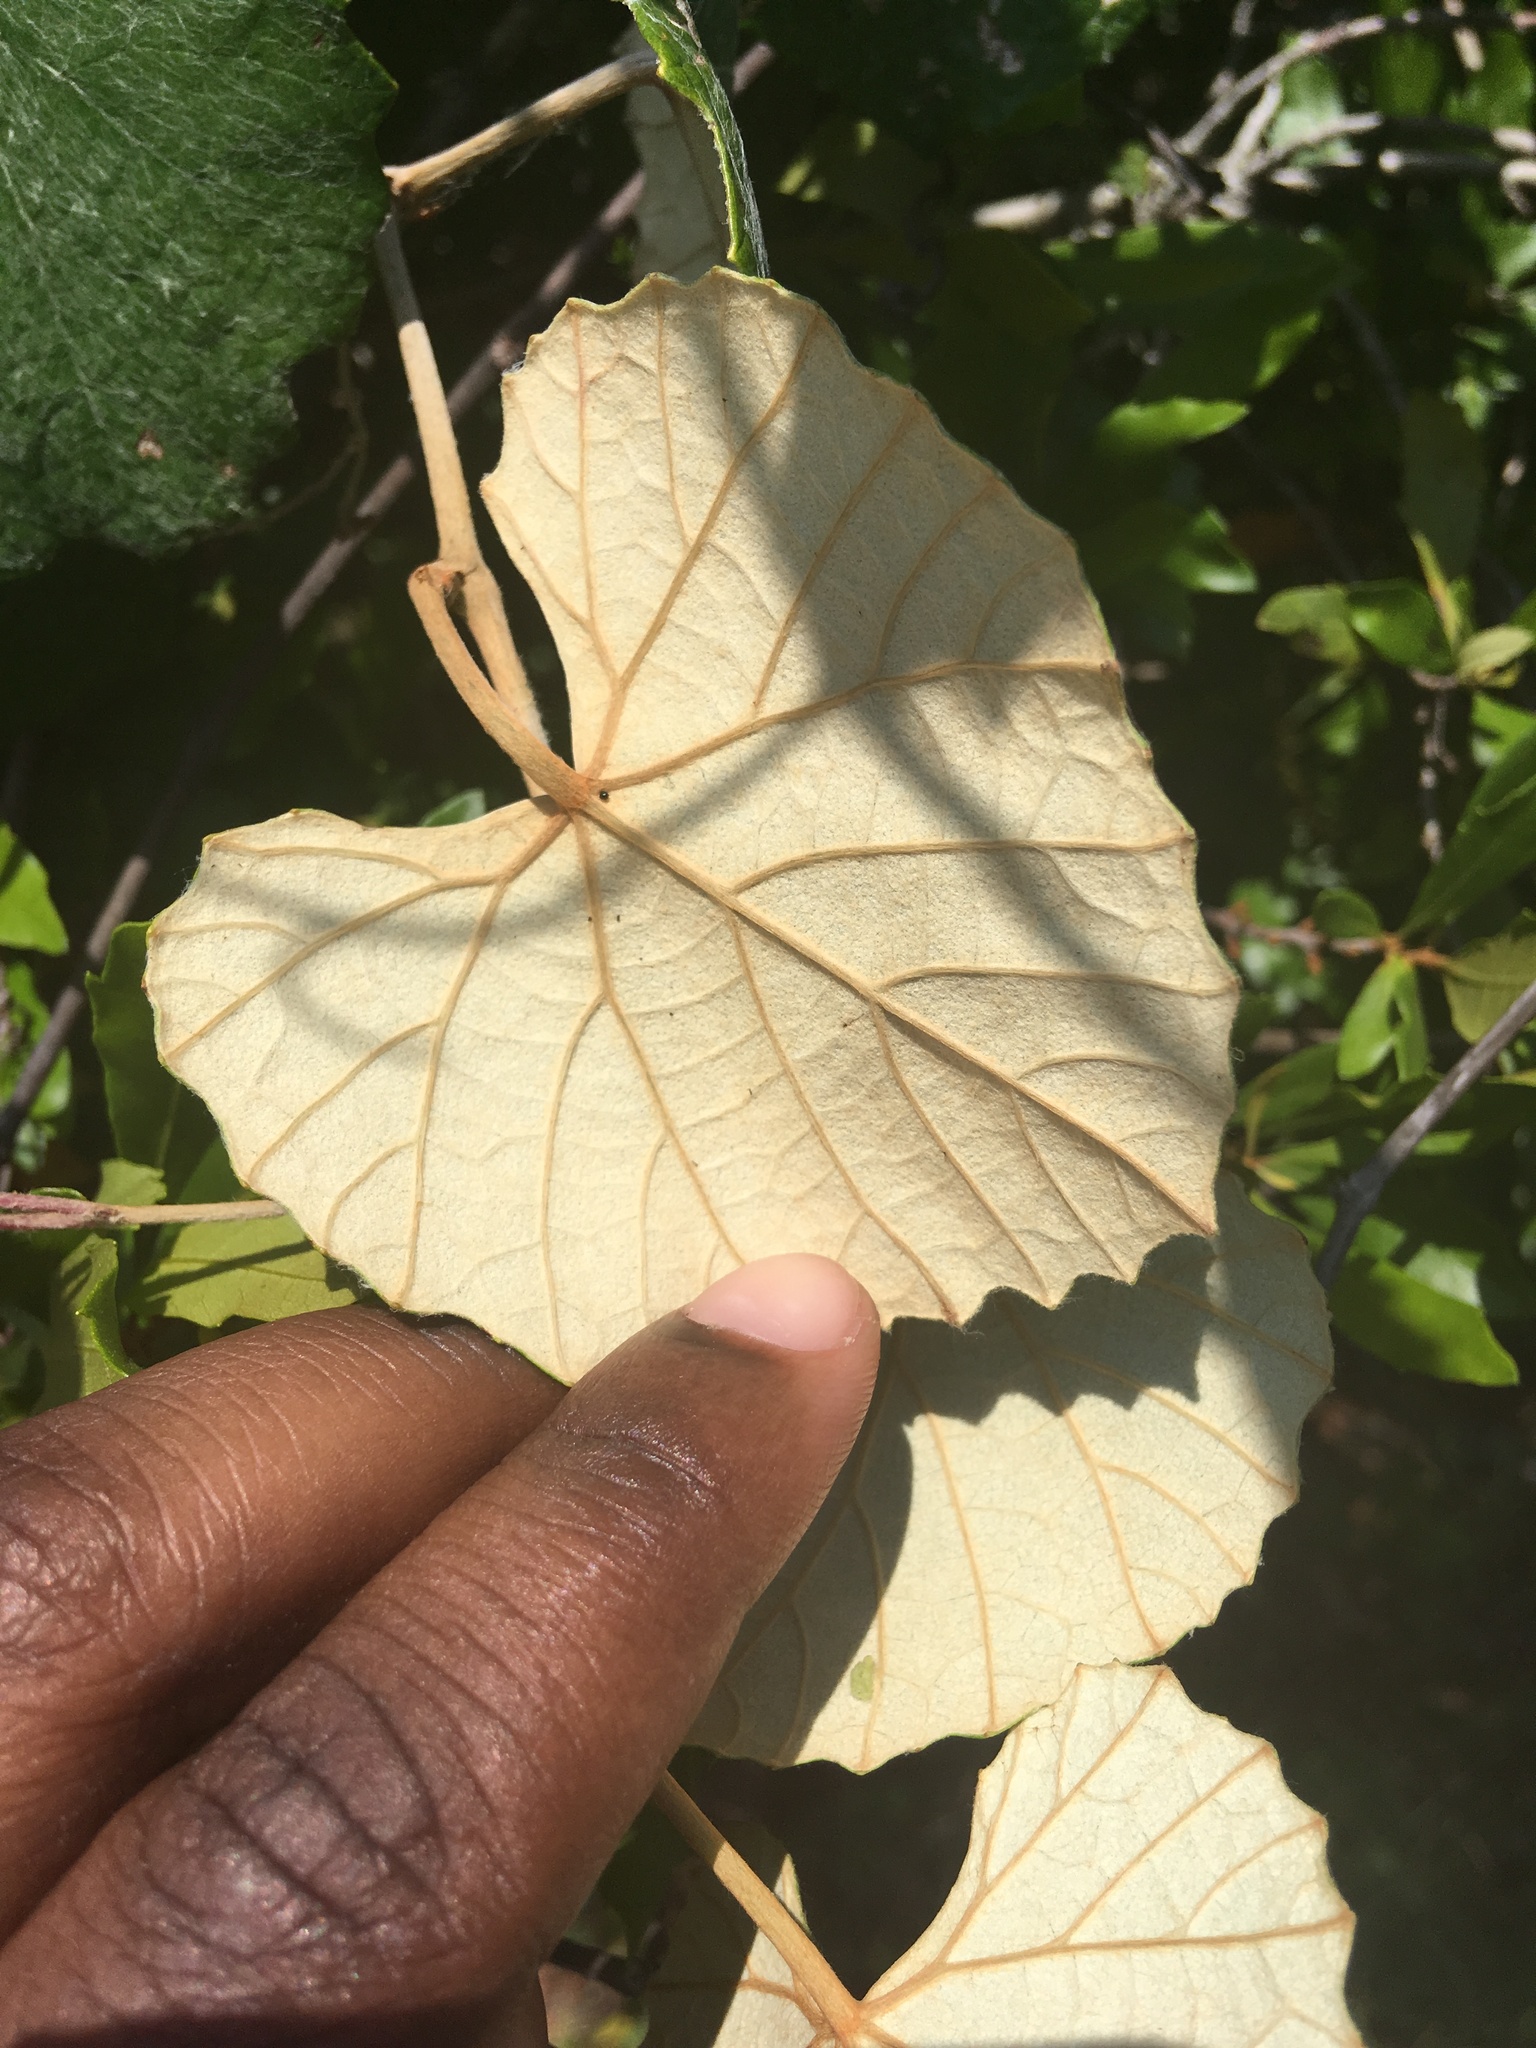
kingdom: Plantae
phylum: Tracheophyta
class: Magnoliopsida
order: Vitales
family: Vitaceae
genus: Vitis
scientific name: Vitis shuttleworthii
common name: Caloosa grape
